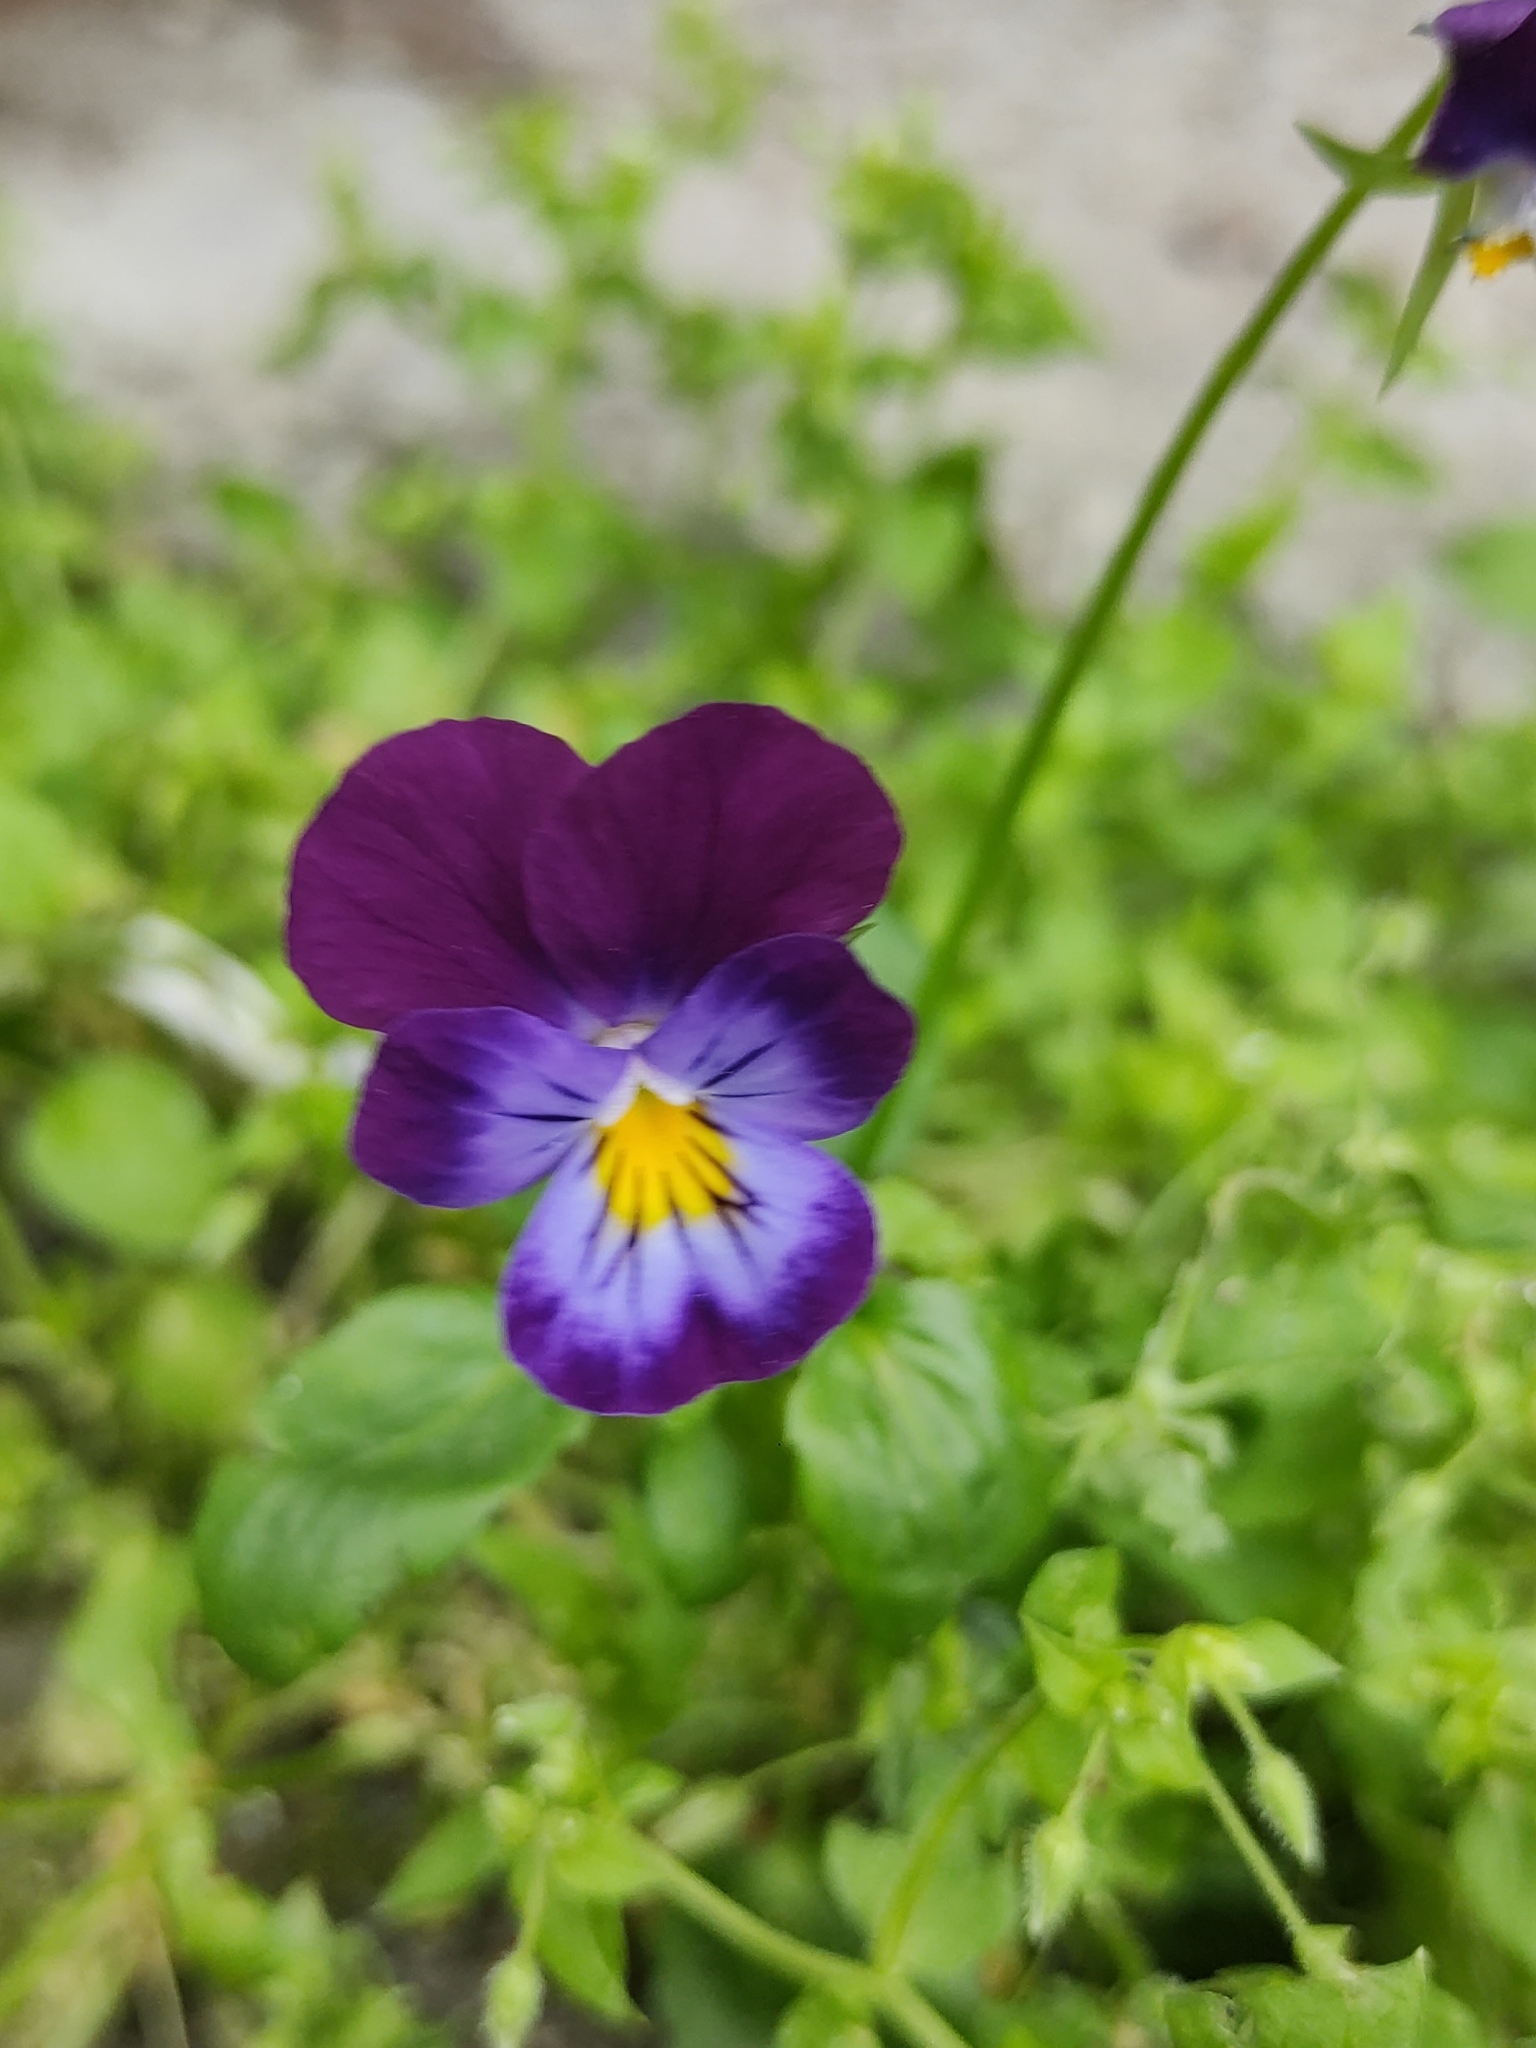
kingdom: Plantae
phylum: Tracheophyta
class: Magnoliopsida
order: Malpighiales
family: Violaceae
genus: Viola
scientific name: Viola wittrockiana
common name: Garden pansy
